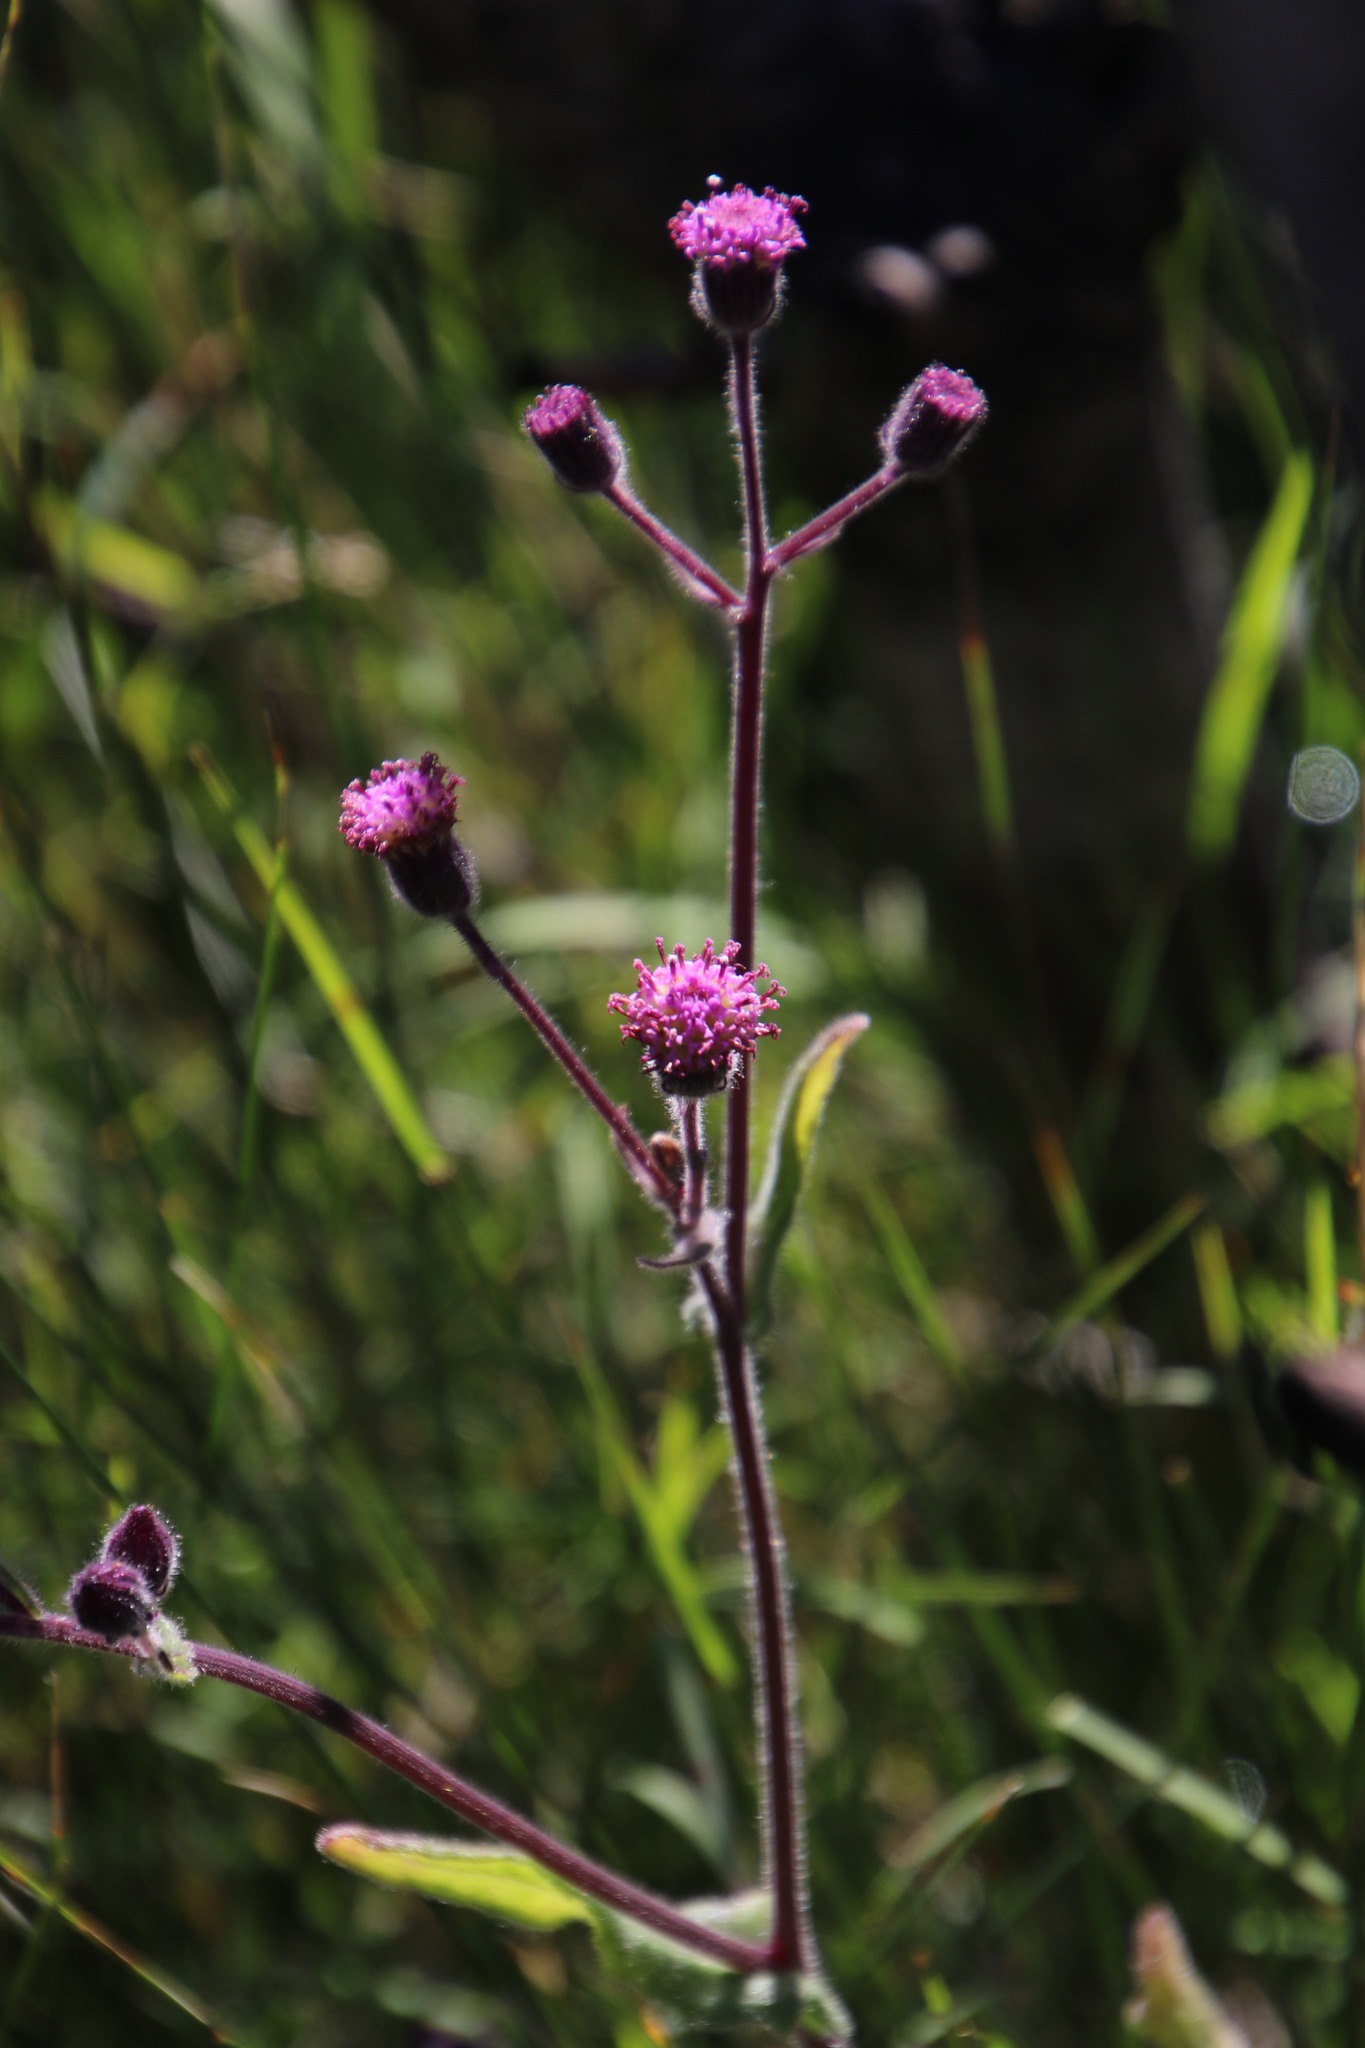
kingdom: Plantae
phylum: Tracheophyta
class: Magnoliopsida
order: Asterales
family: Asteraceae
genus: Senecio
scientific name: Senecio purpureus
